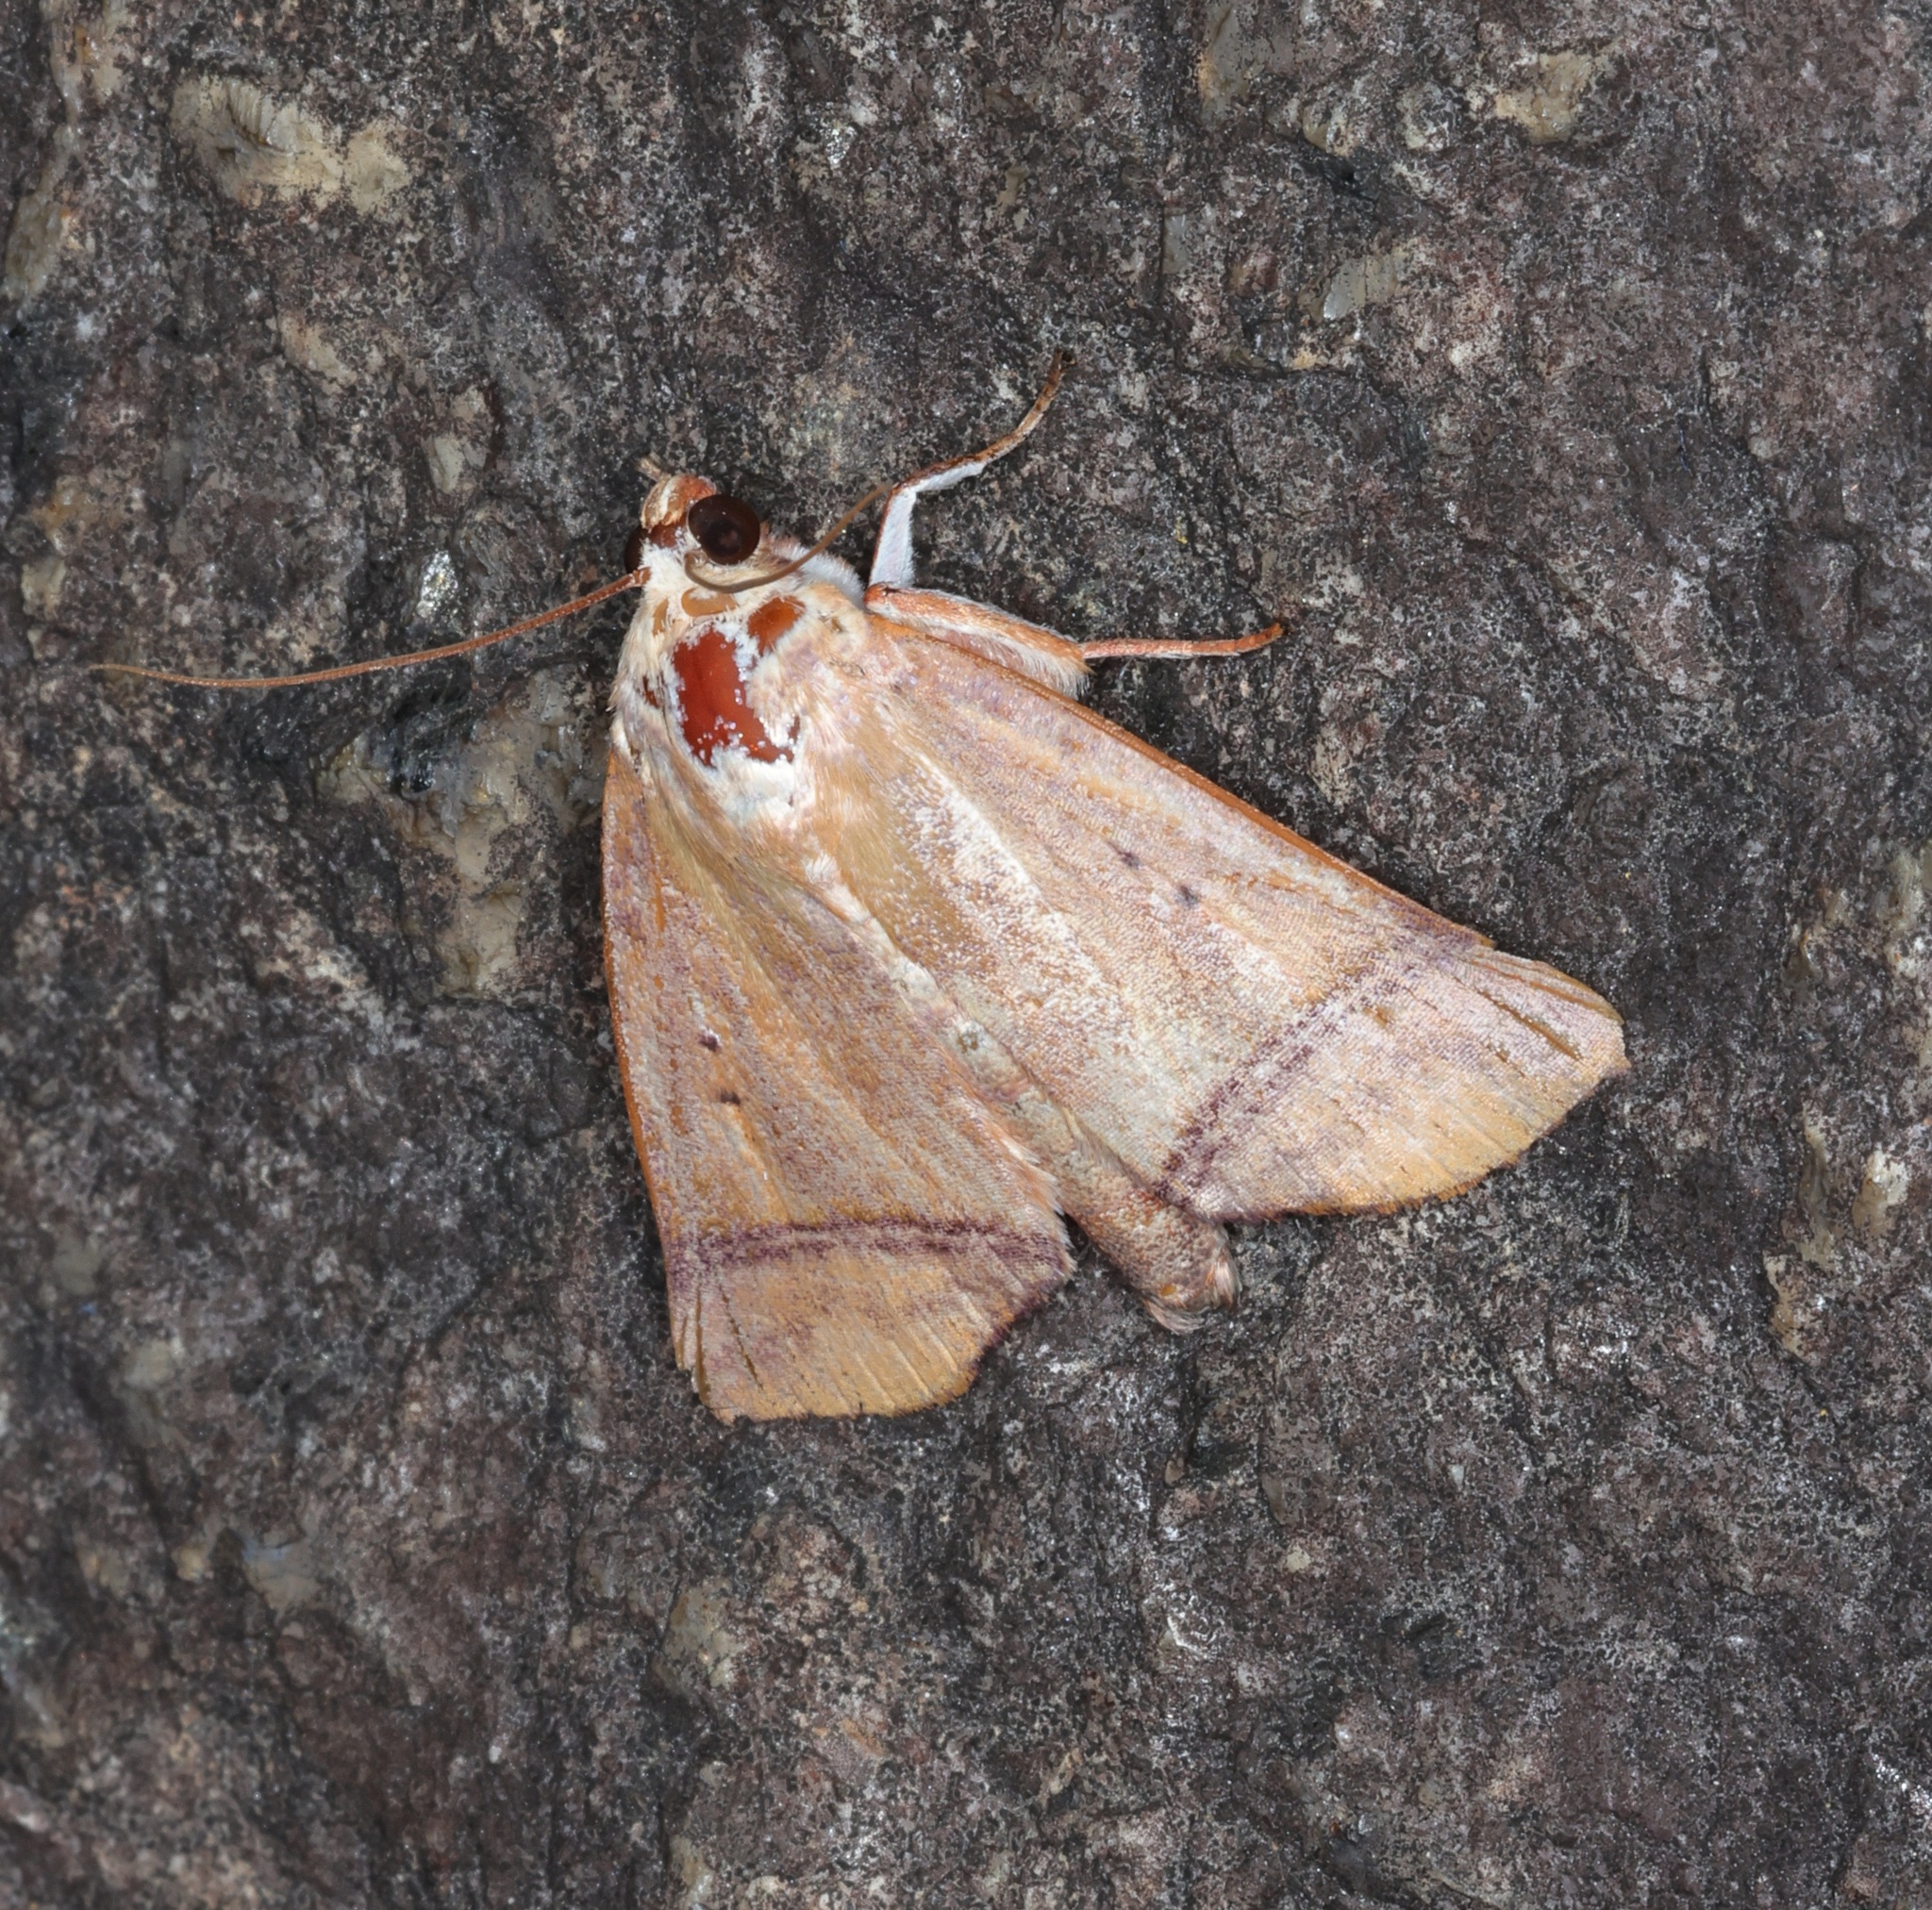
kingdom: Animalia
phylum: Arthropoda
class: Insecta
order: Lepidoptera
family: Nolidae
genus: Carea
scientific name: Carea varipes
